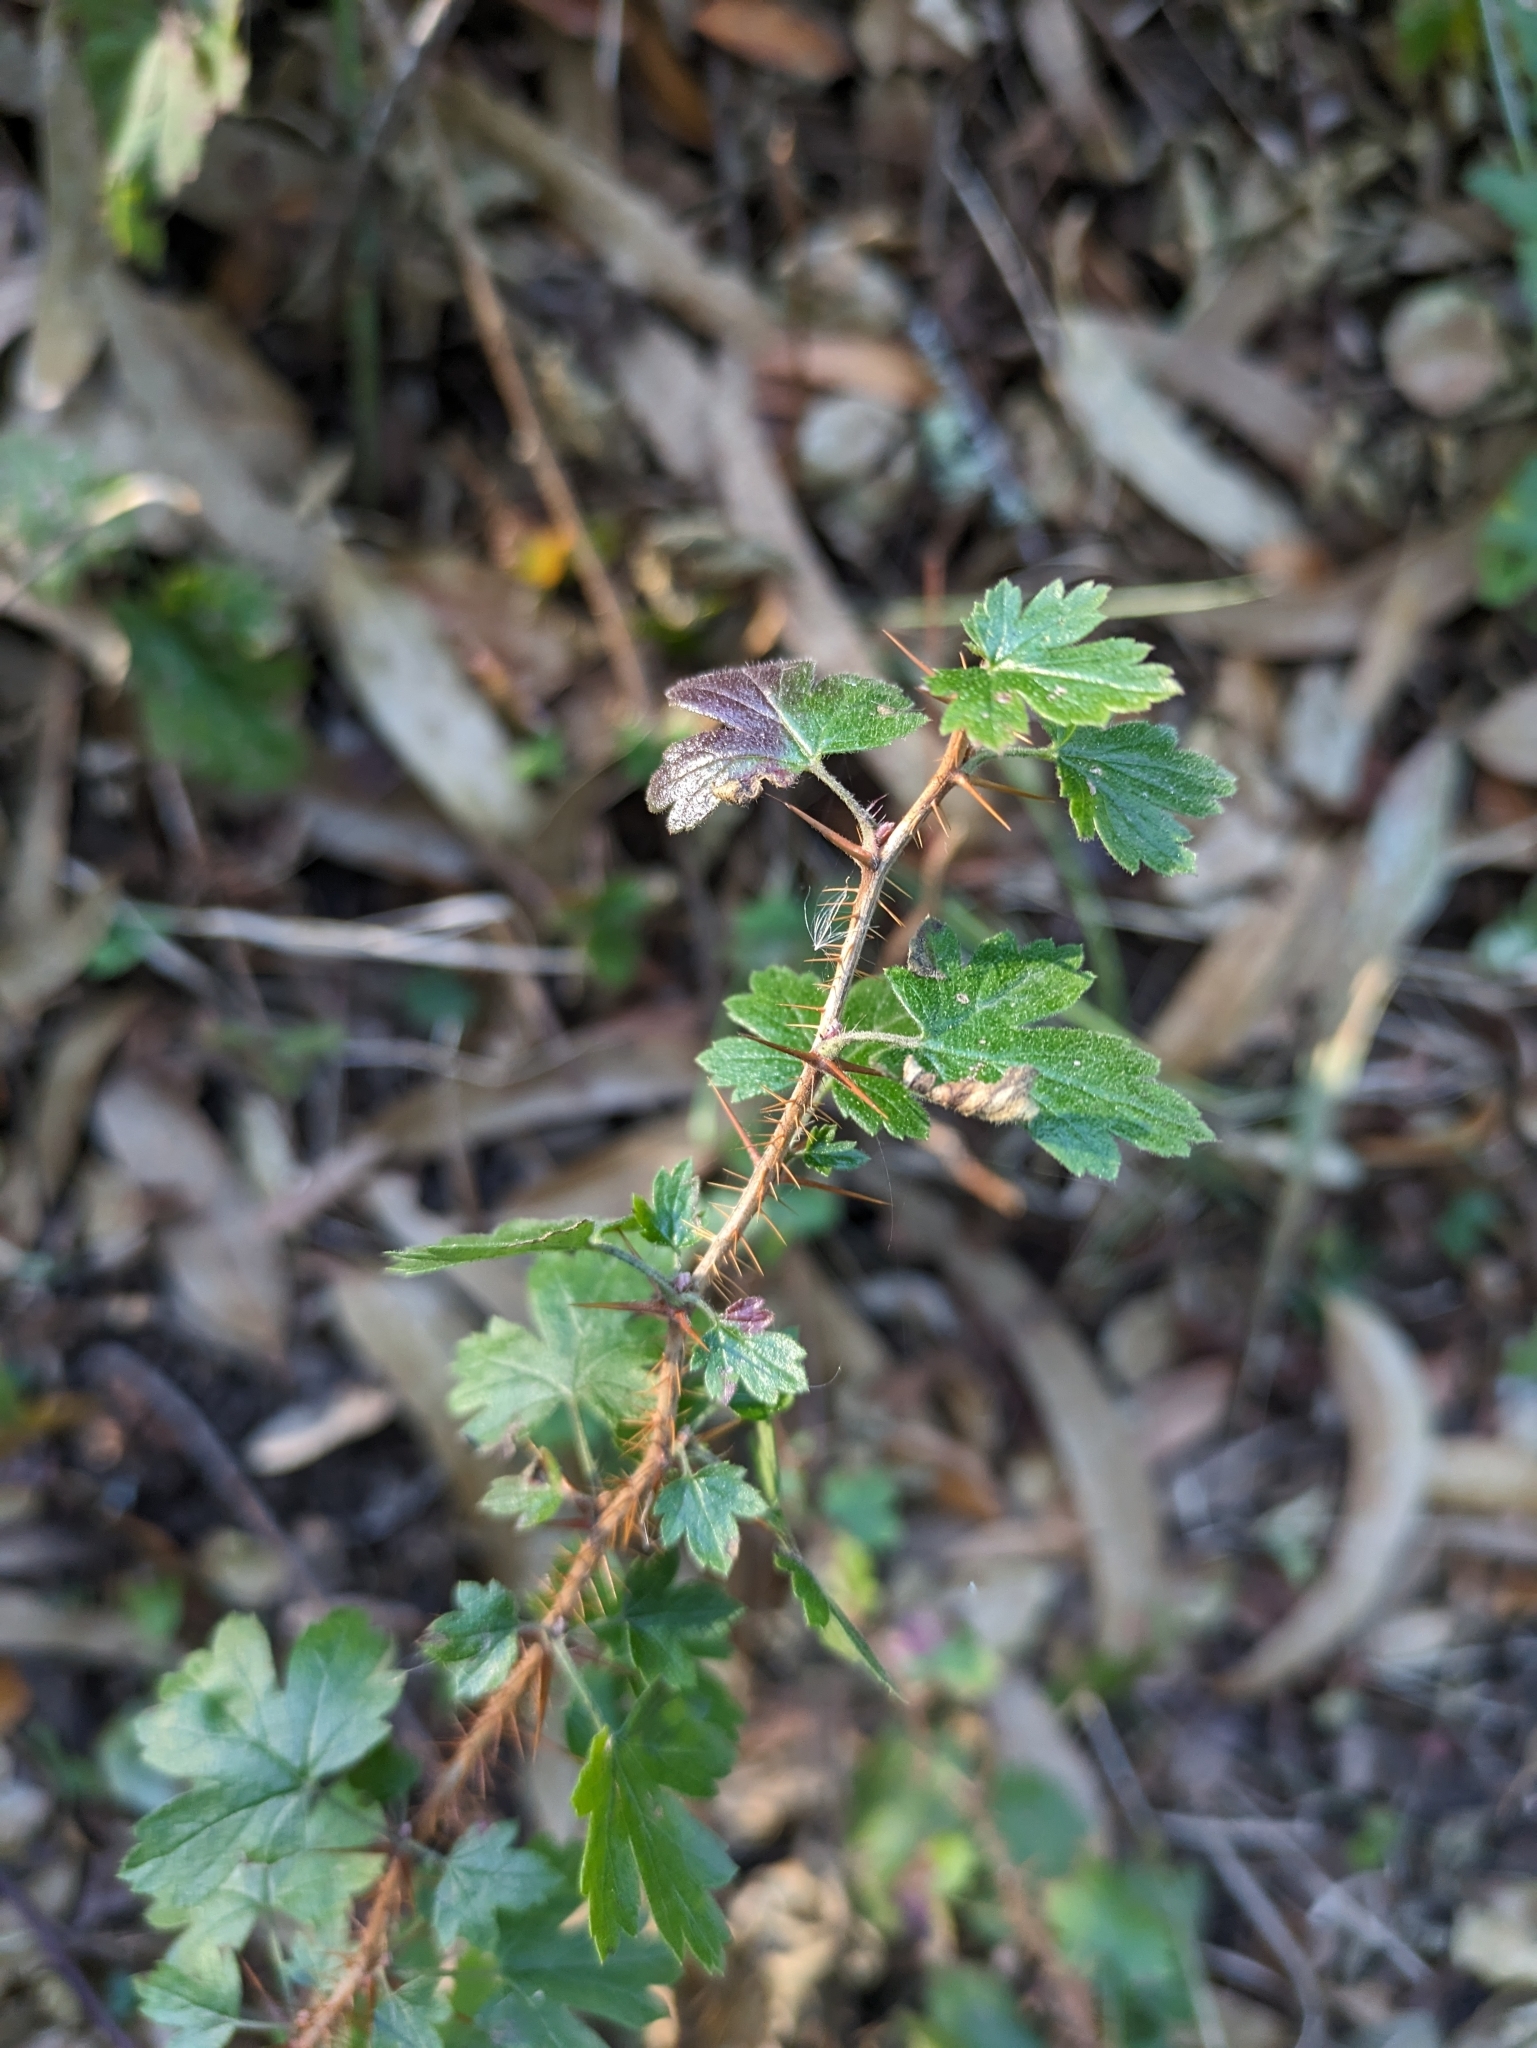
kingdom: Plantae
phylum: Tracheophyta
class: Magnoliopsida
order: Saxifragales
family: Grossulariaceae
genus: Ribes
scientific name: Ribes menziesii
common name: Canyon gooseberry
